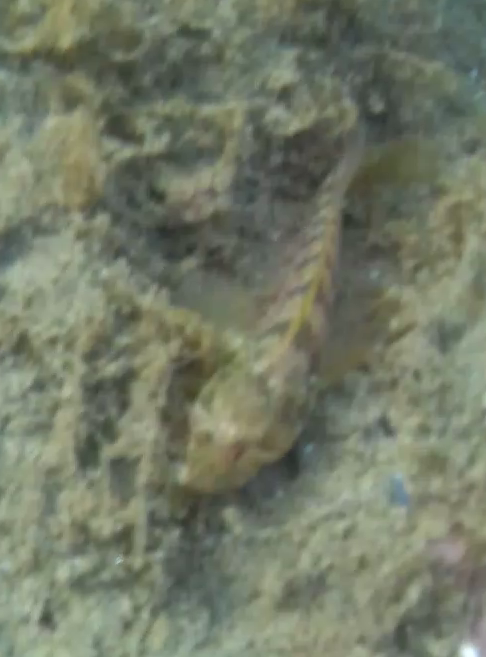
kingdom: Animalia
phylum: Chordata
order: Perciformes
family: Blenniidae
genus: Parablennius
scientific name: Parablennius incognitus
